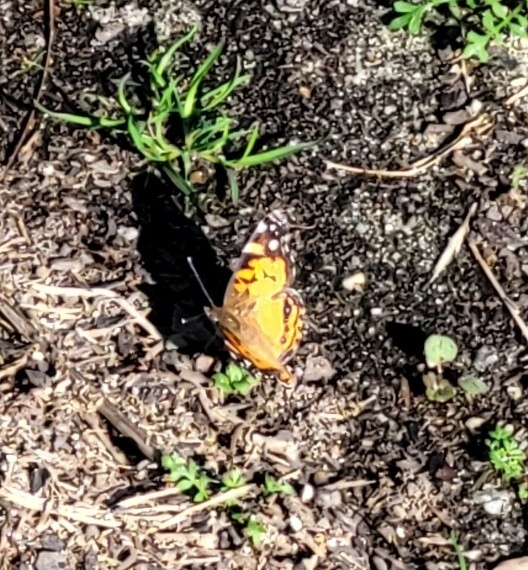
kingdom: Animalia
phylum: Arthropoda
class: Insecta
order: Lepidoptera
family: Nymphalidae
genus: Vanessa
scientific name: Vanessa virginiensis
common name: American lady
